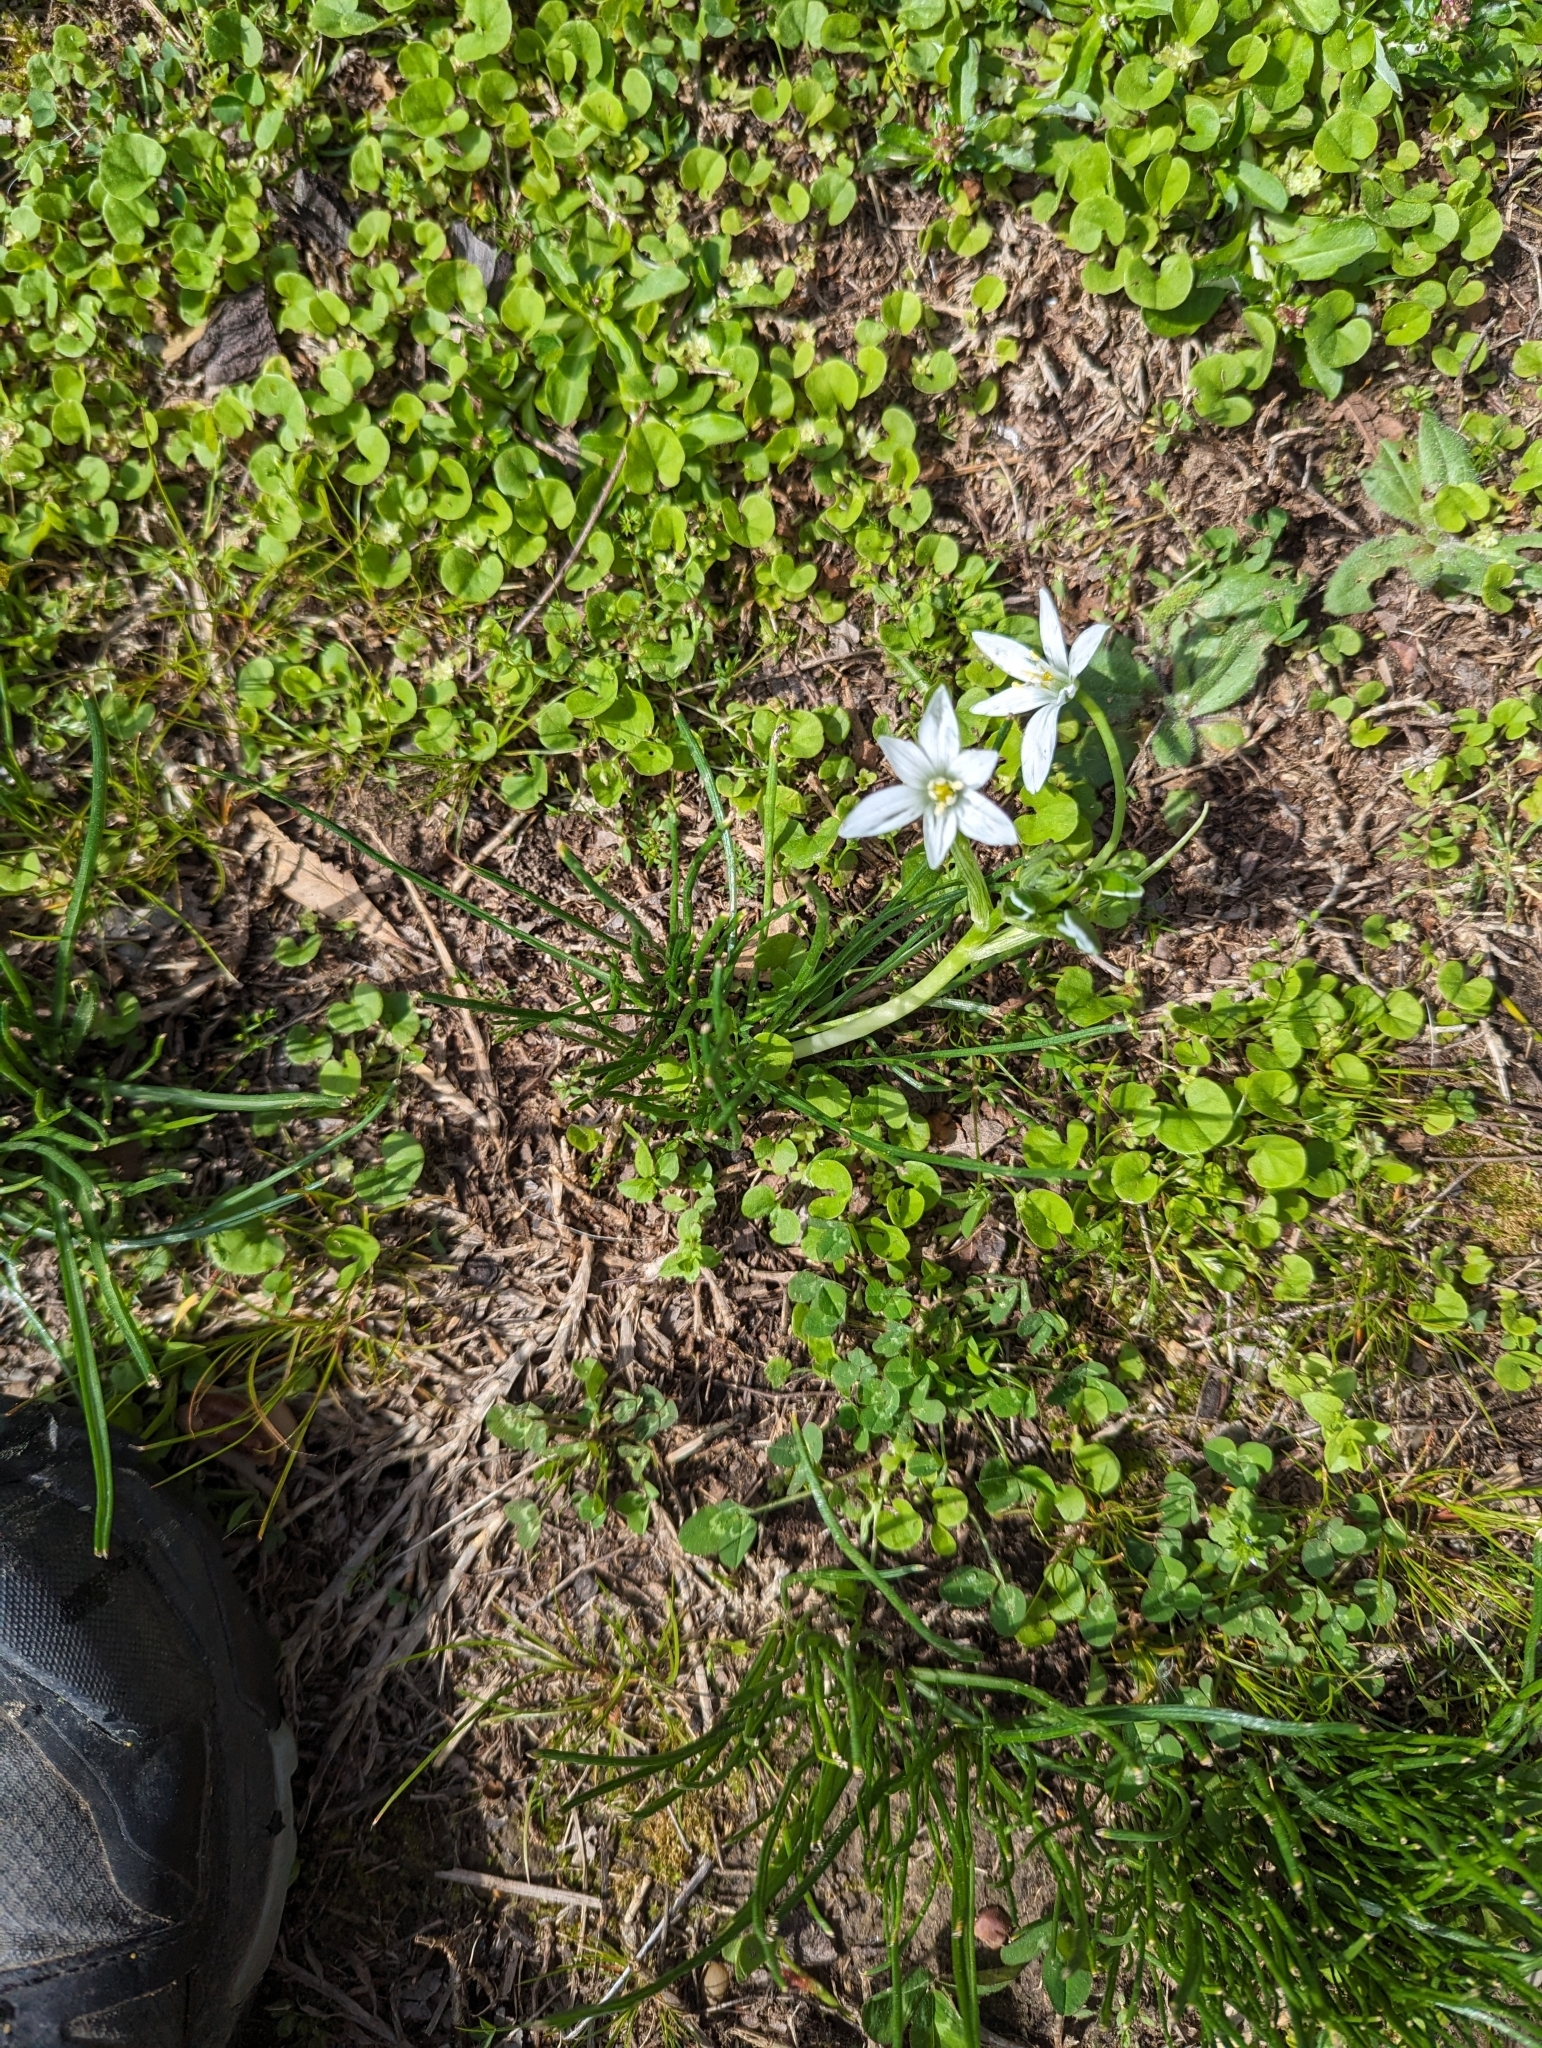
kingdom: Plantae
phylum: Tracheophyta
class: Liliopsida
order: Asparagales
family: Asparagaceae
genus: Ornithogalum
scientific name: Ornithogalum umbellatum
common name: Garden star-of-bethlehem
